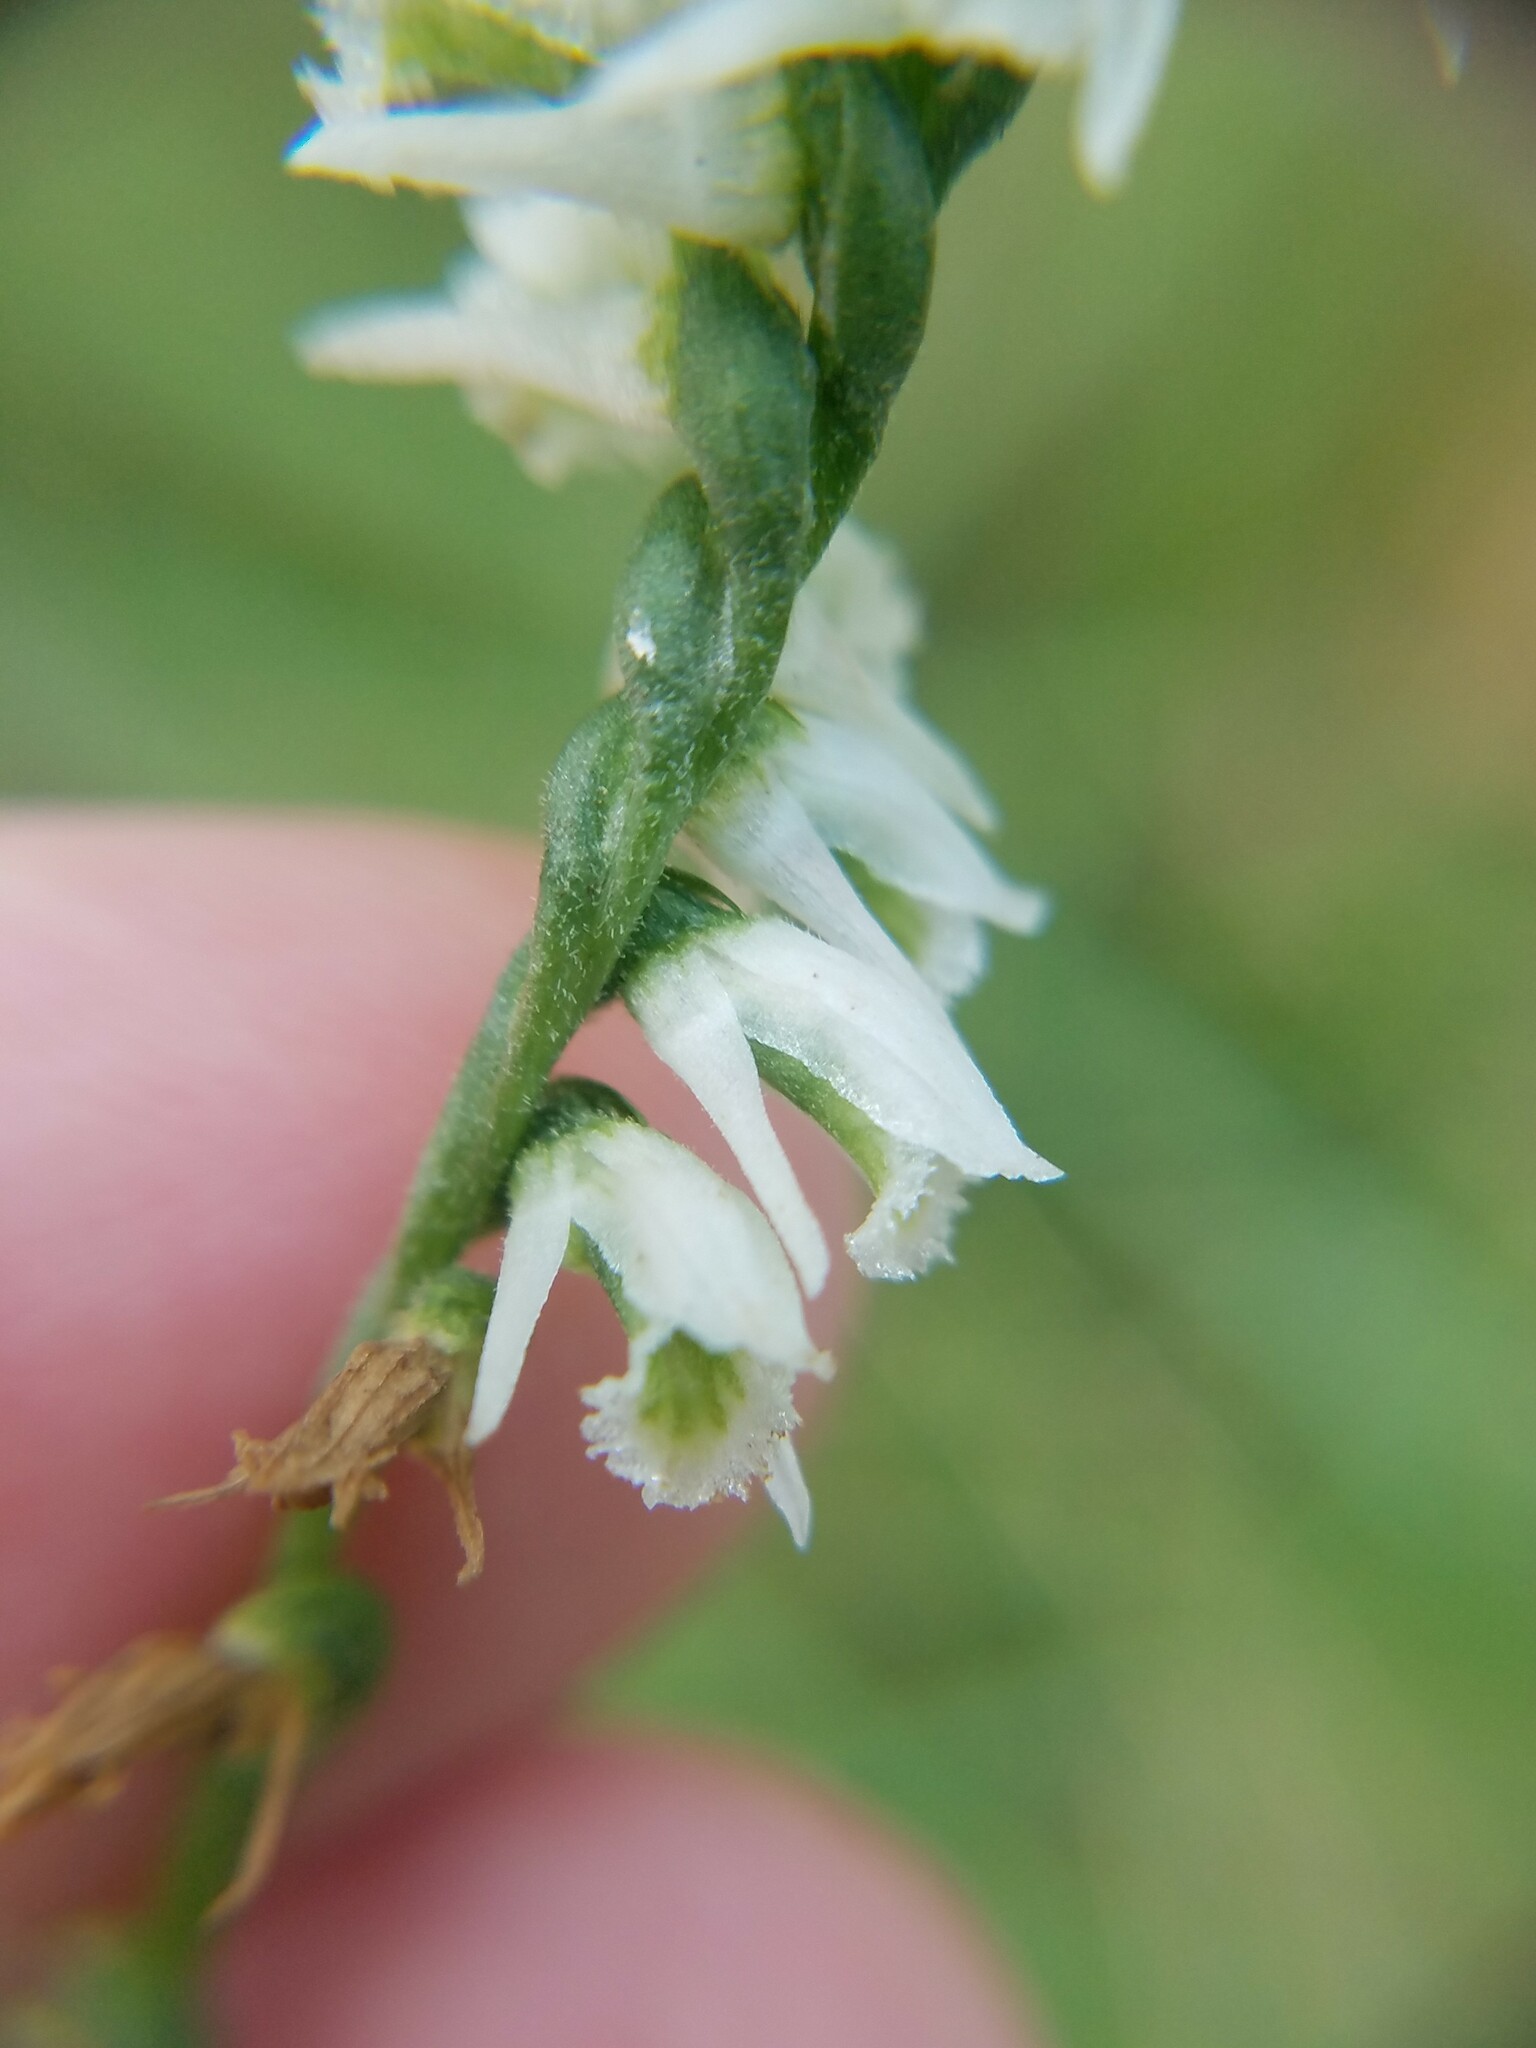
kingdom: Plantae
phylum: Tracheophyta
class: Liliopsida
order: Asparagales
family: Orchidaceae
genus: Spiranthes
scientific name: Spiranthes lacera
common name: Northern slender ladies'-tresses
